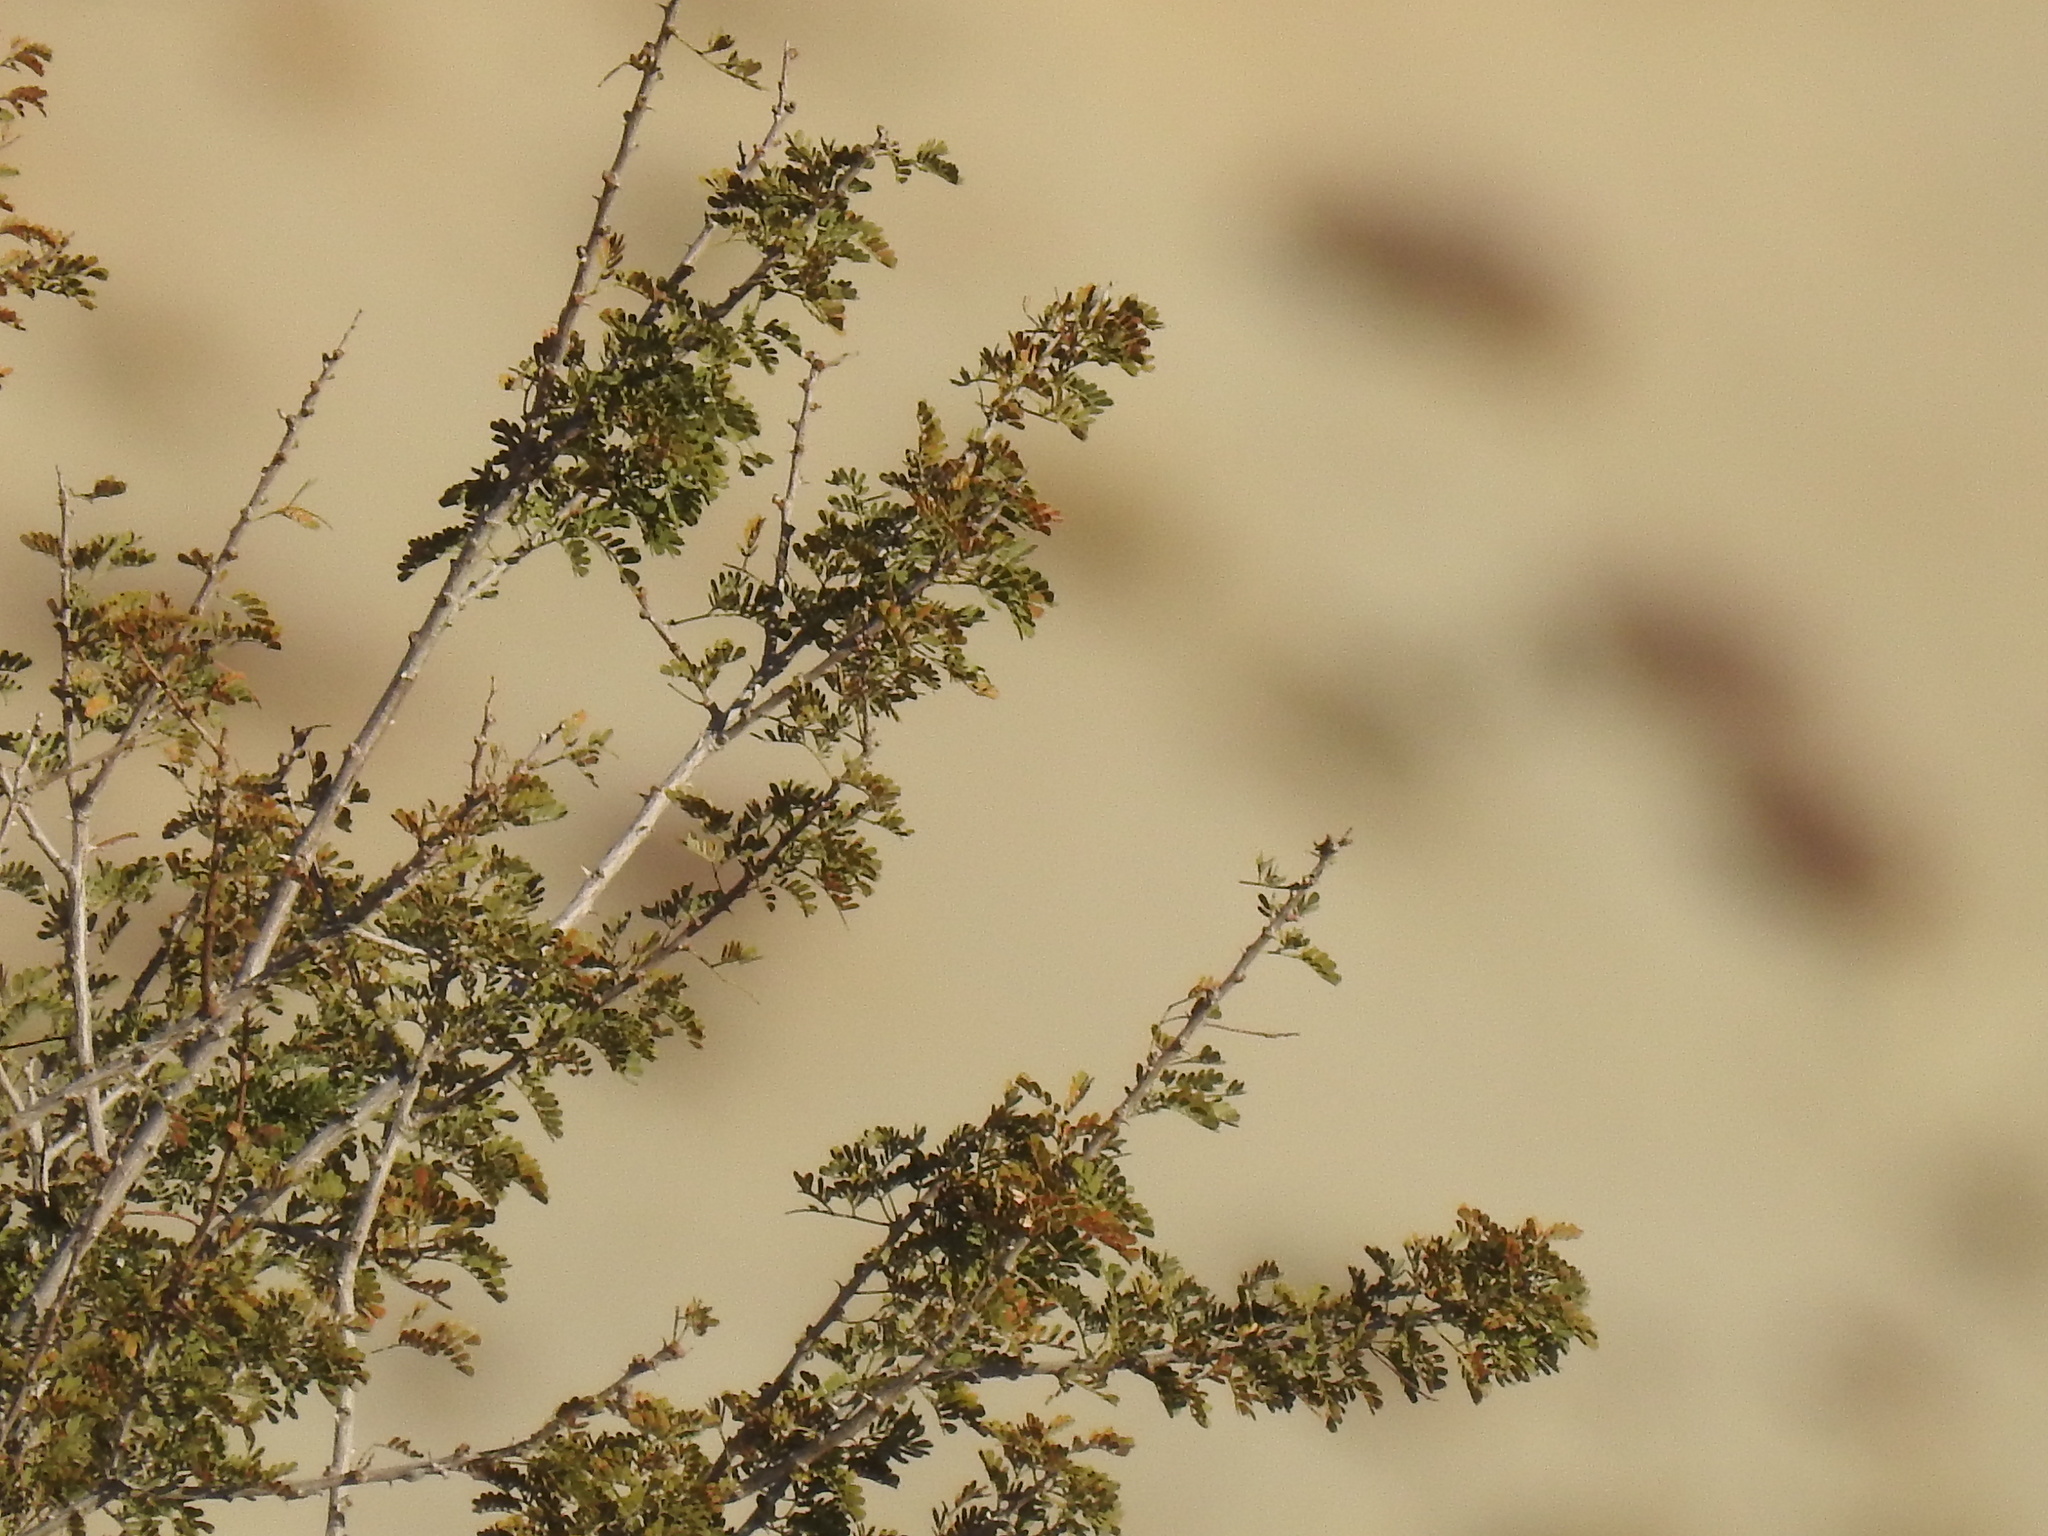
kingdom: Plantae
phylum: Tracheophyta
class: Magnoliopsida
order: Fabales
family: Fabaceae
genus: Senegalia
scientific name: Senegalia greggii
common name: Texas-mimosa
